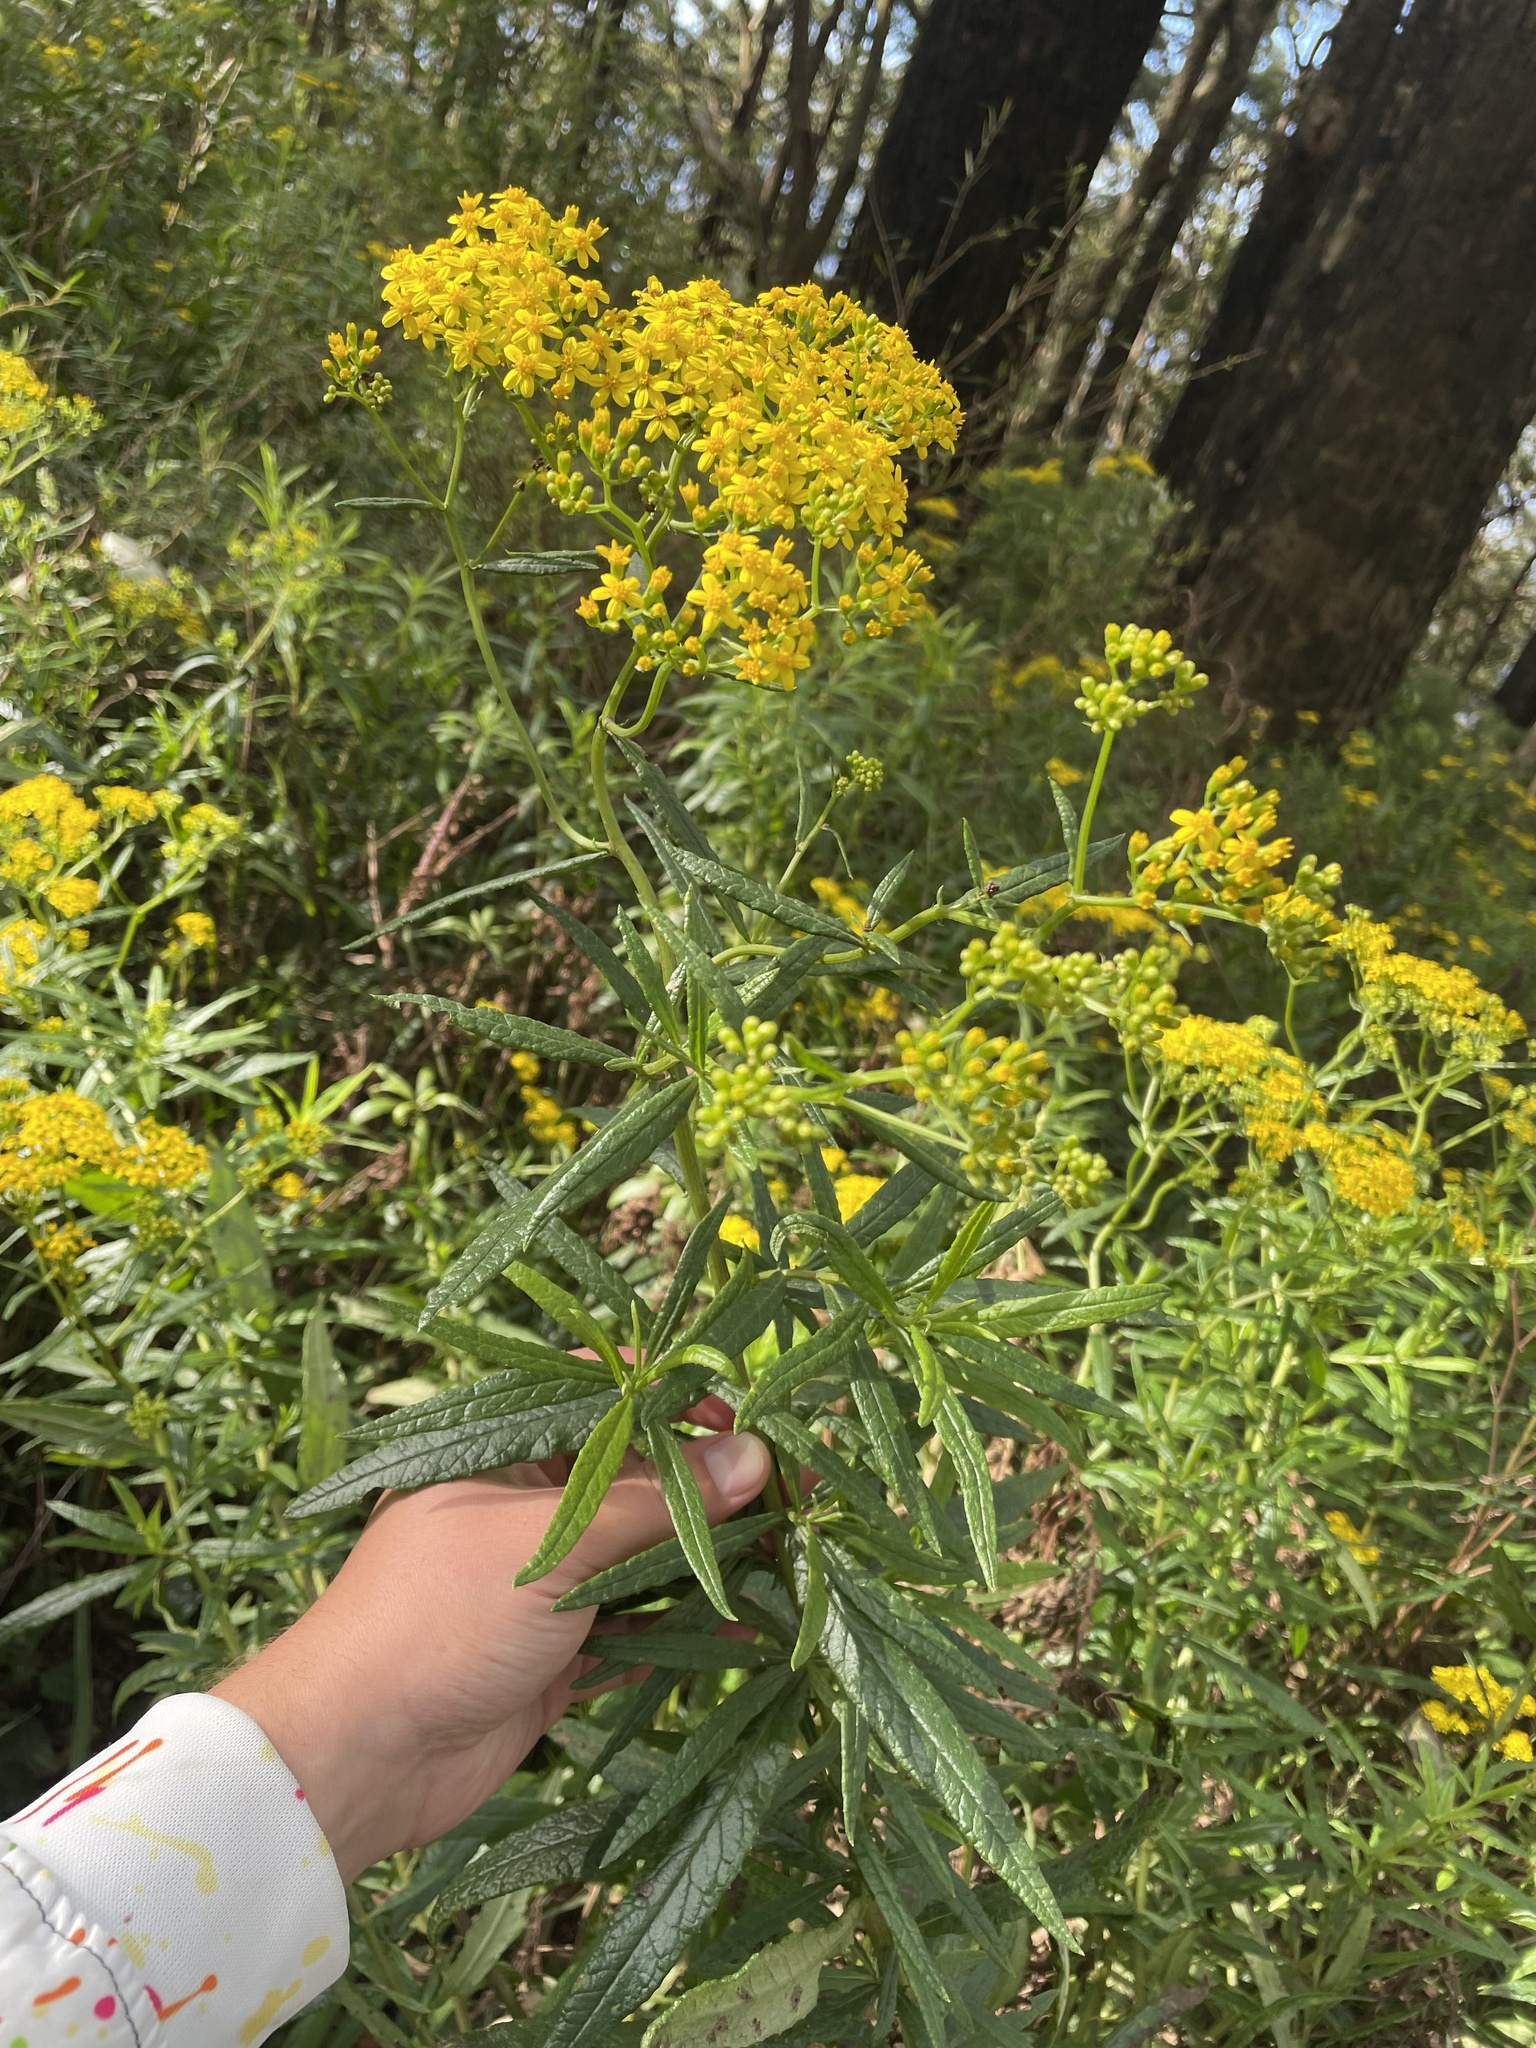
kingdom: Plantae
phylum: Tracheophyta
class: Magnoliopsida
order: Asterales
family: Asteraceae
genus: Senecio
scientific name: Senecio linearifolius
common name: Fireweed groundsel
